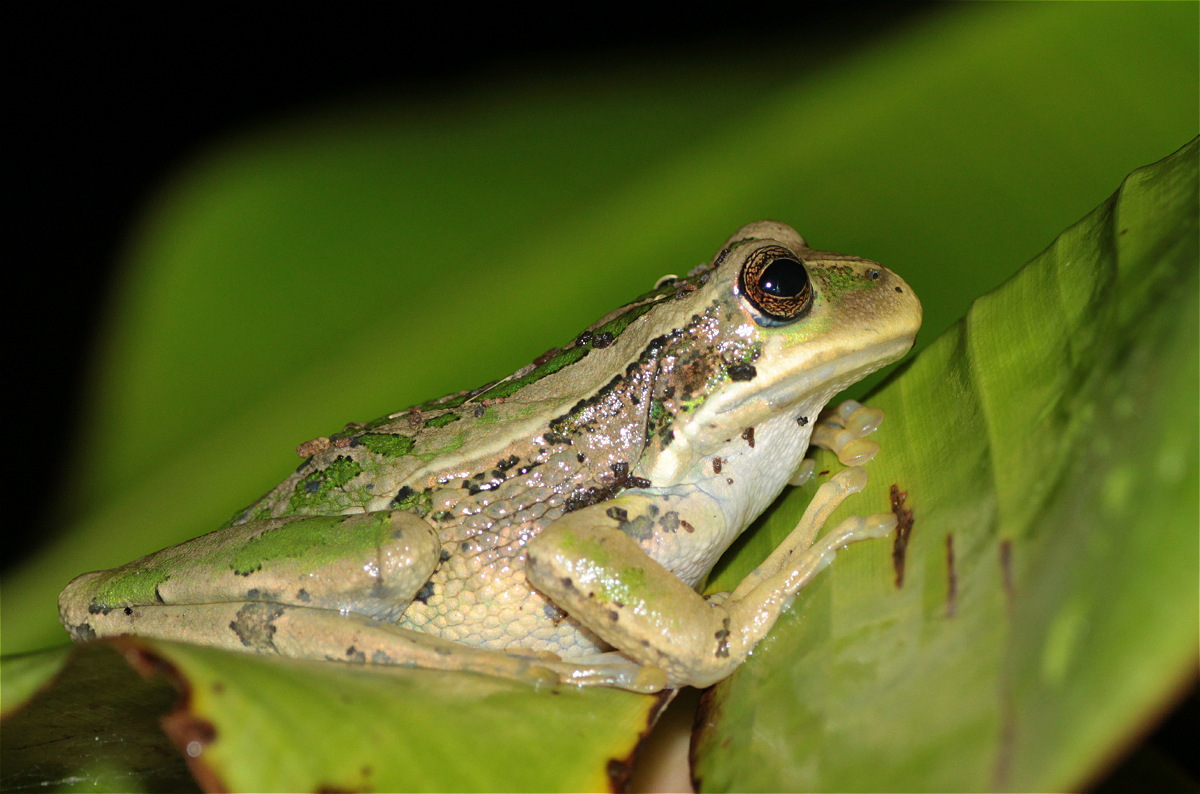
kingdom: Animalia
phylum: Chordata
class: Amphibia
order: Anura
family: Hemiphractidae
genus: Gastrotheca
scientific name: Gastrotheca cuencana
